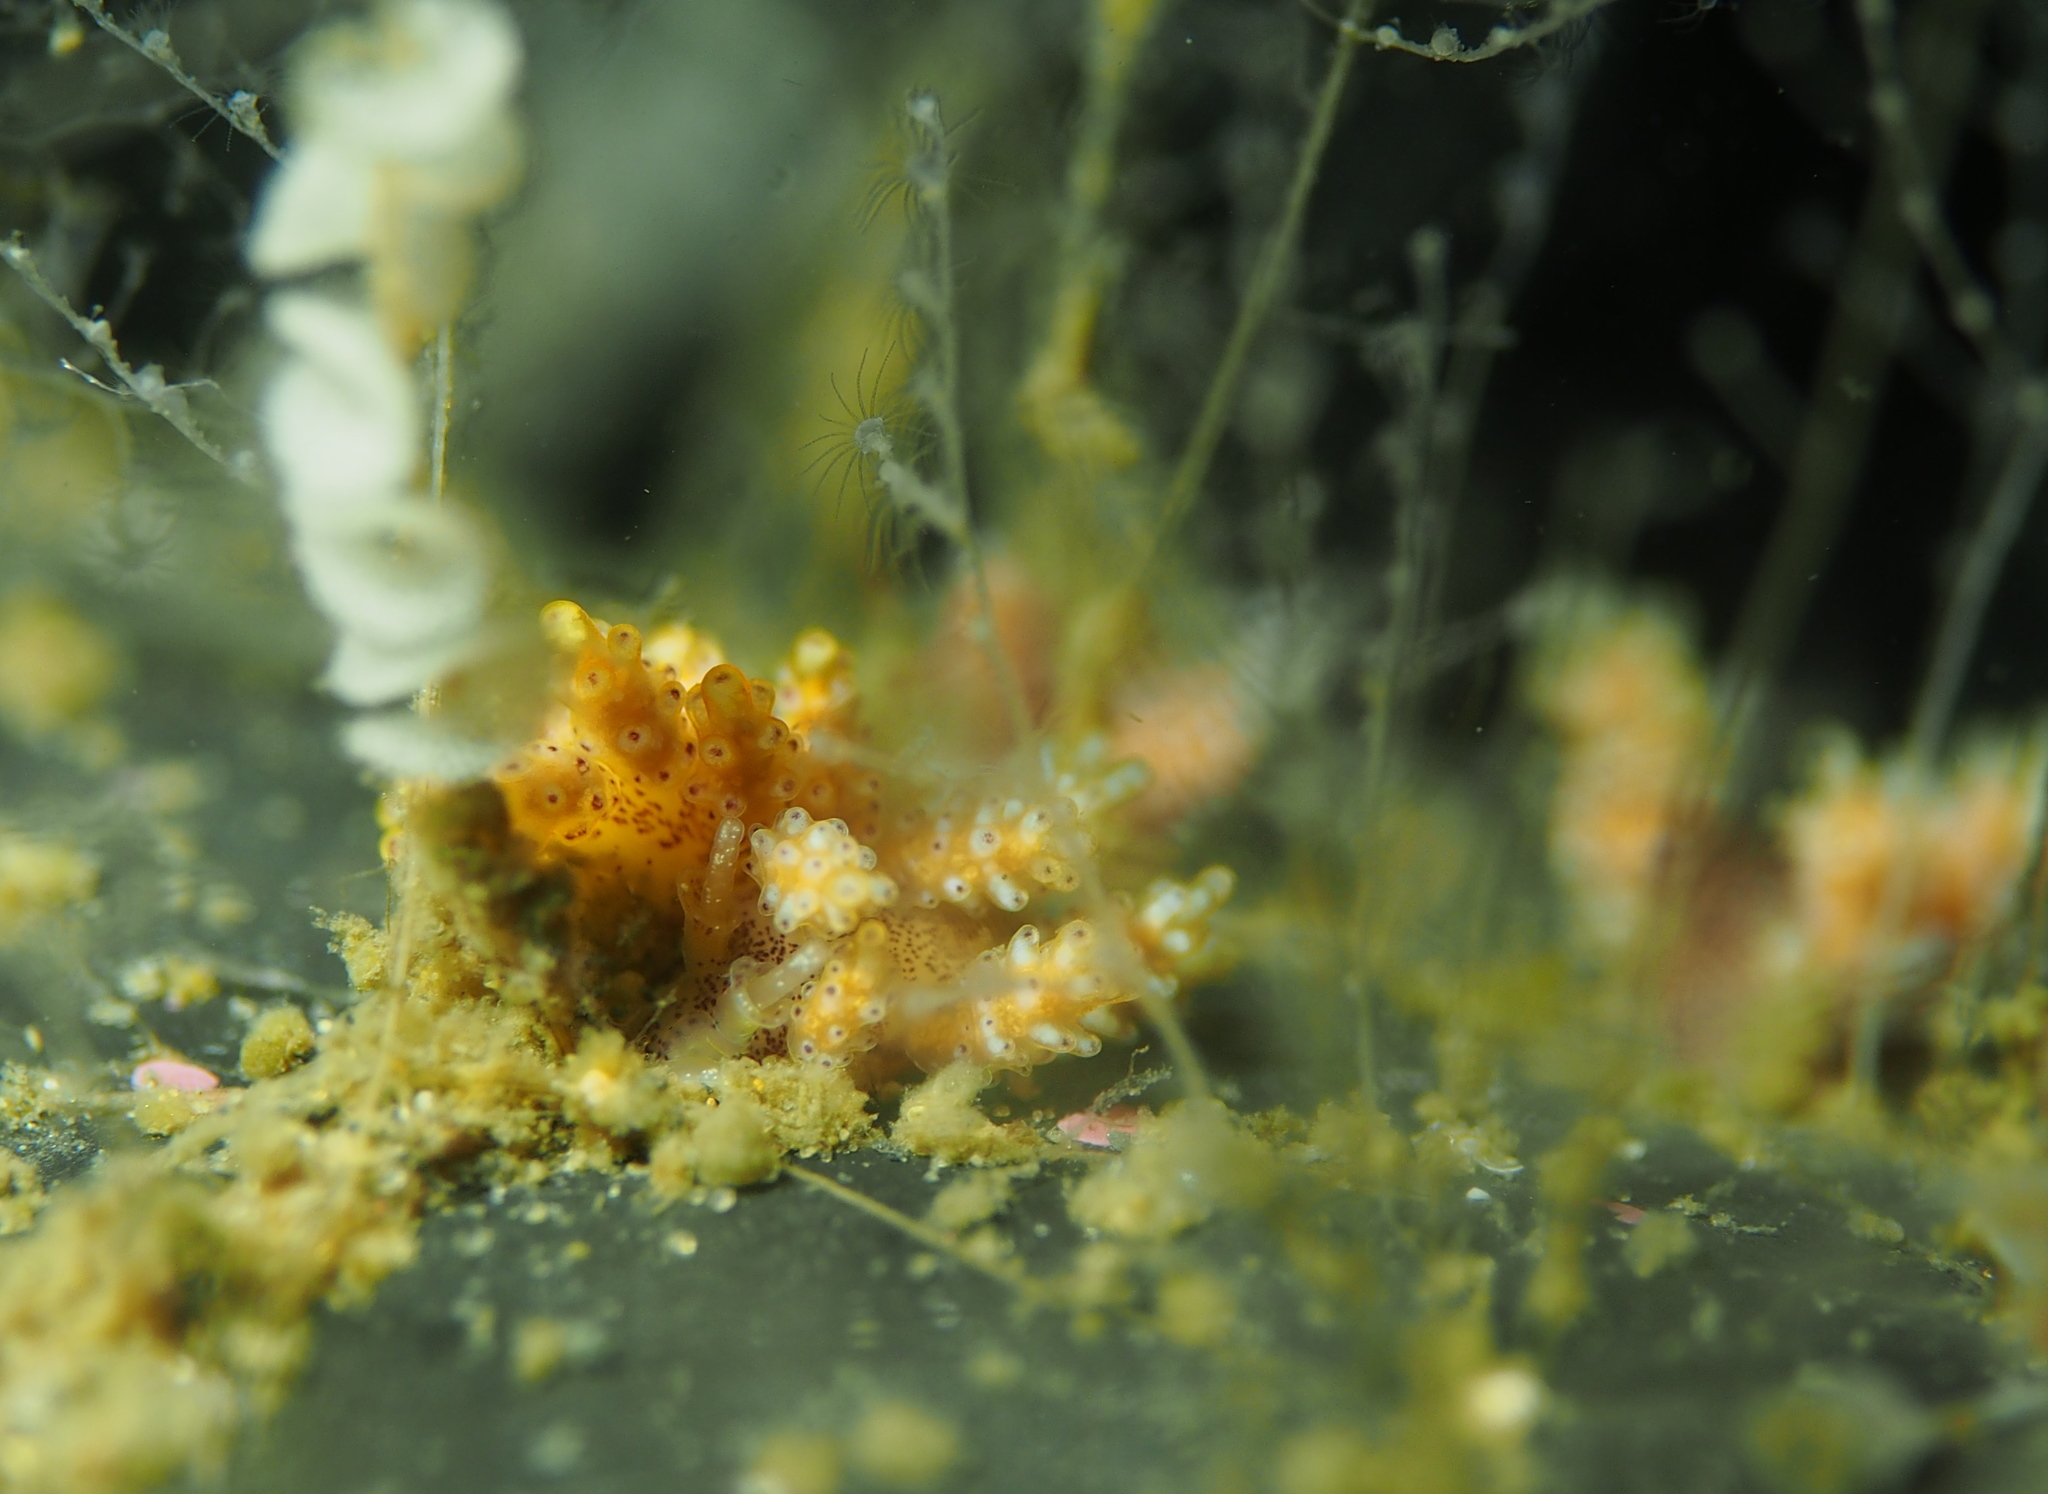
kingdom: Animalia
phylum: Mollusca
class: Gastropoda
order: Nudibranchia
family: Dotidae
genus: Doto
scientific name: Doto maculata
